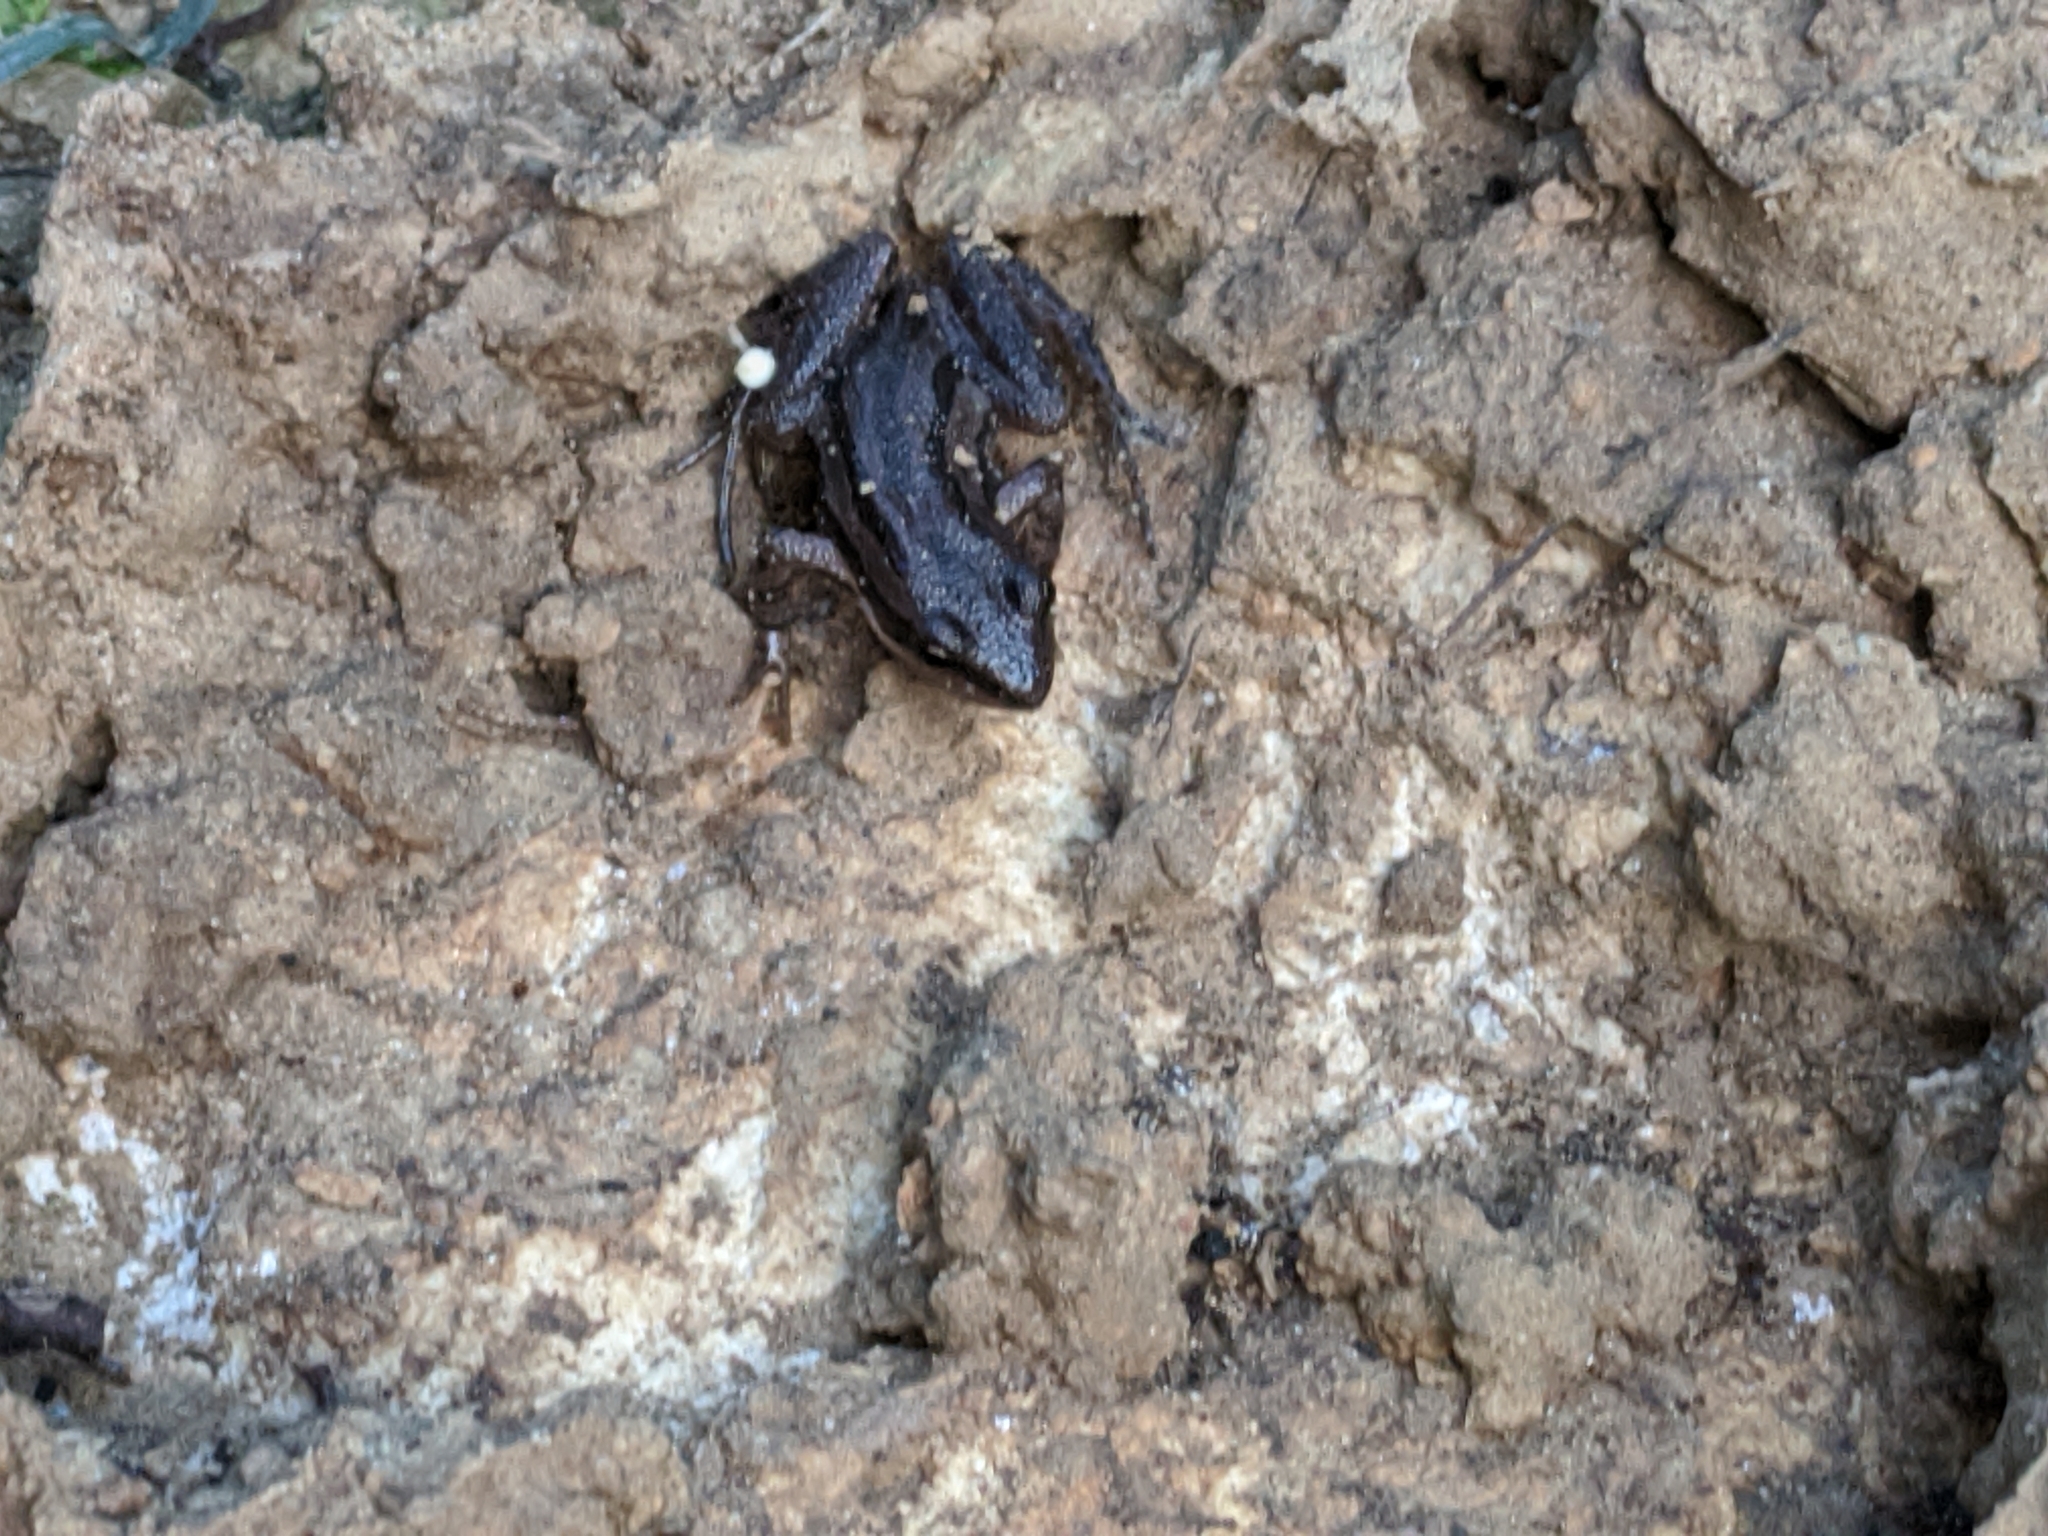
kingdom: Animalia
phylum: Chordata
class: Amphibia
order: Anura
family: Hylidae
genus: Pseudacris
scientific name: Pseudacris maculata
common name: Boreal chorus frog
